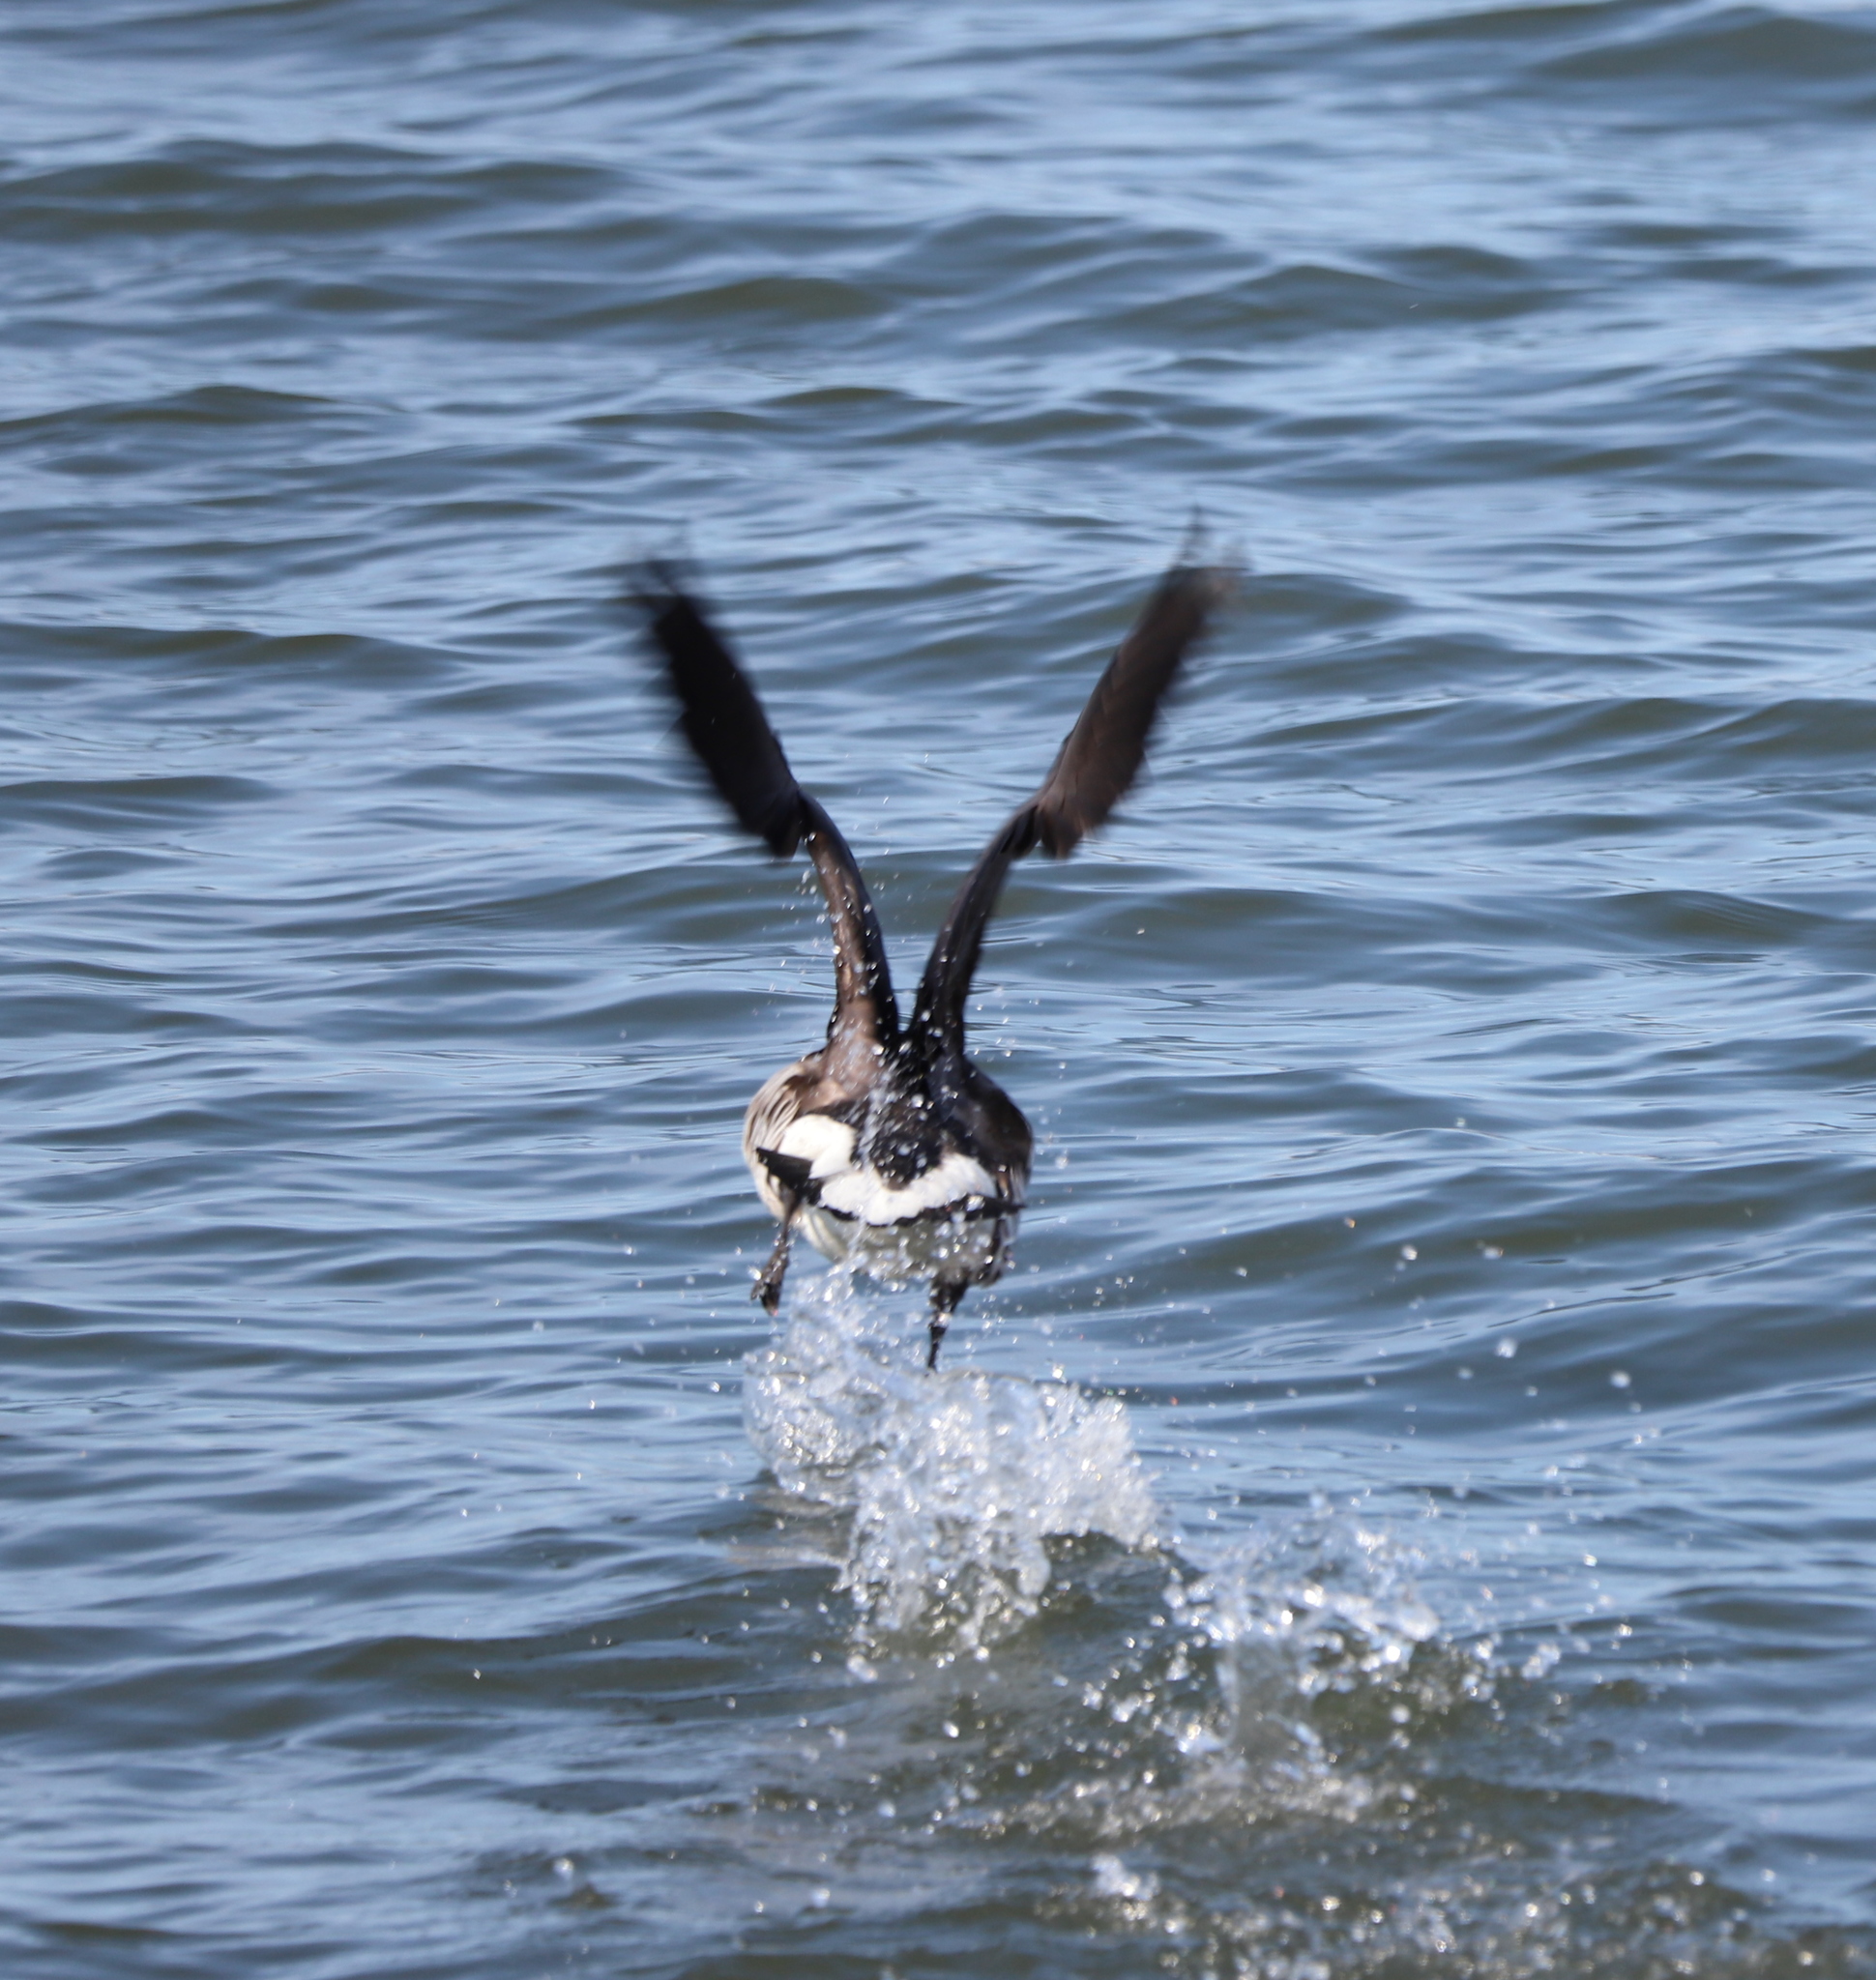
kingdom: Animalia
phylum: Chordata
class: Aves
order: Anseriformes
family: Anatidae
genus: Branta
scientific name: Branta bernicla
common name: Brant goose
